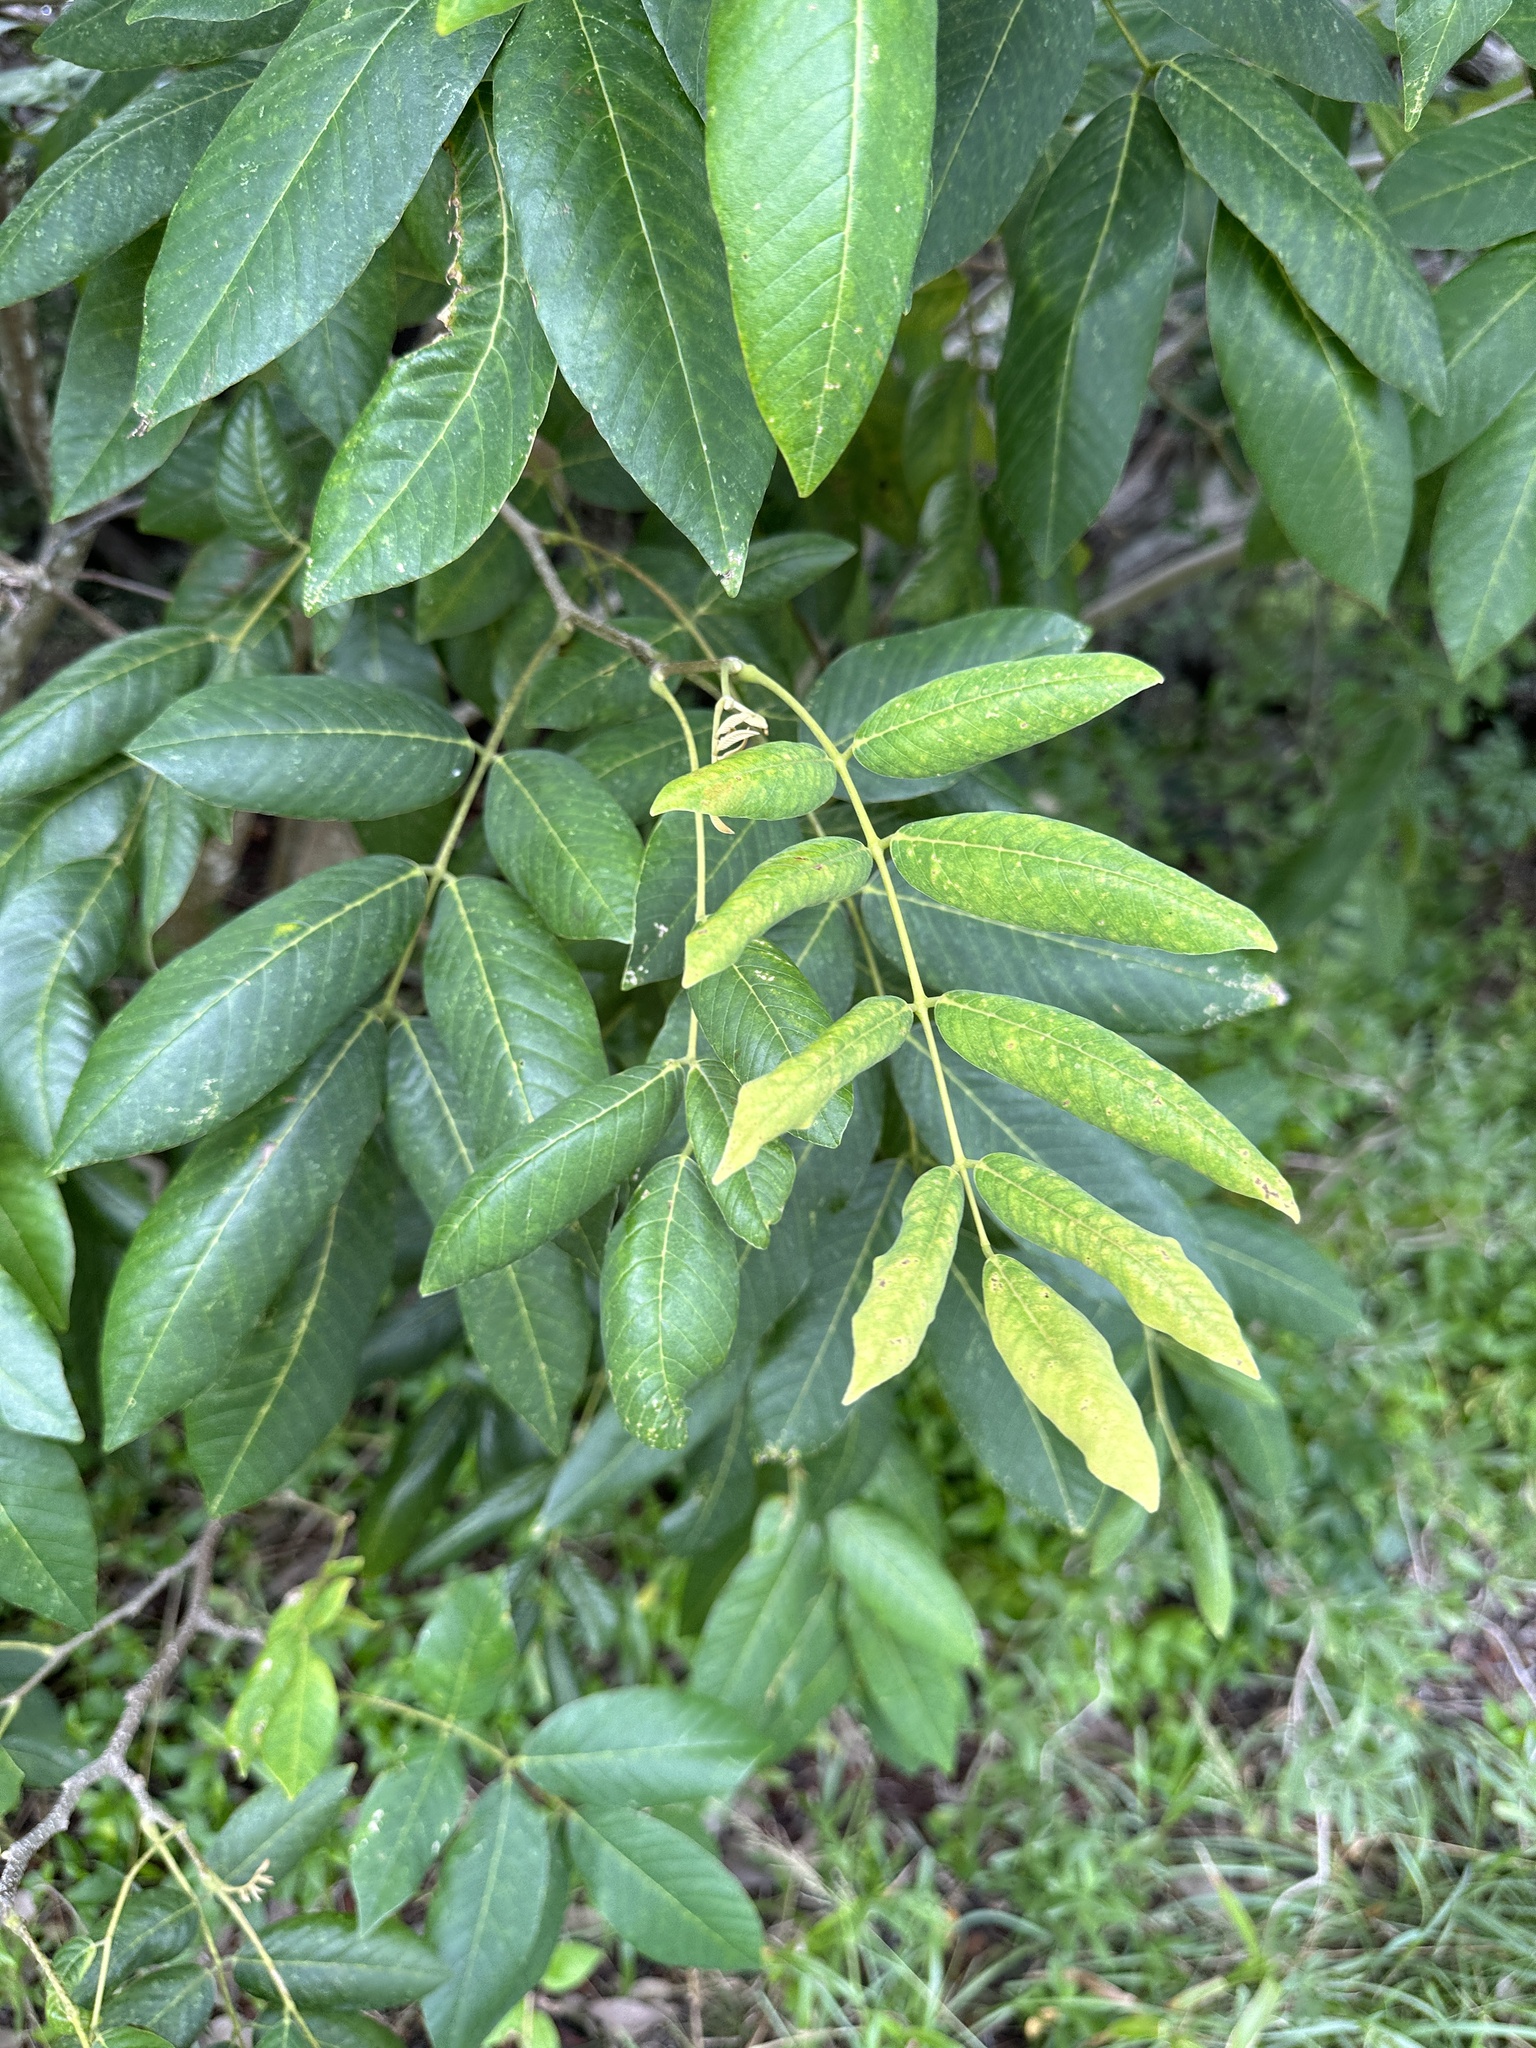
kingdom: Plantae
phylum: Tracheophyta
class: Magnoliopsida
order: Fabales
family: Fabaceae
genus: Piscidia
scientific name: Piscidia piscipula
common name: Florida fishpoison tree
